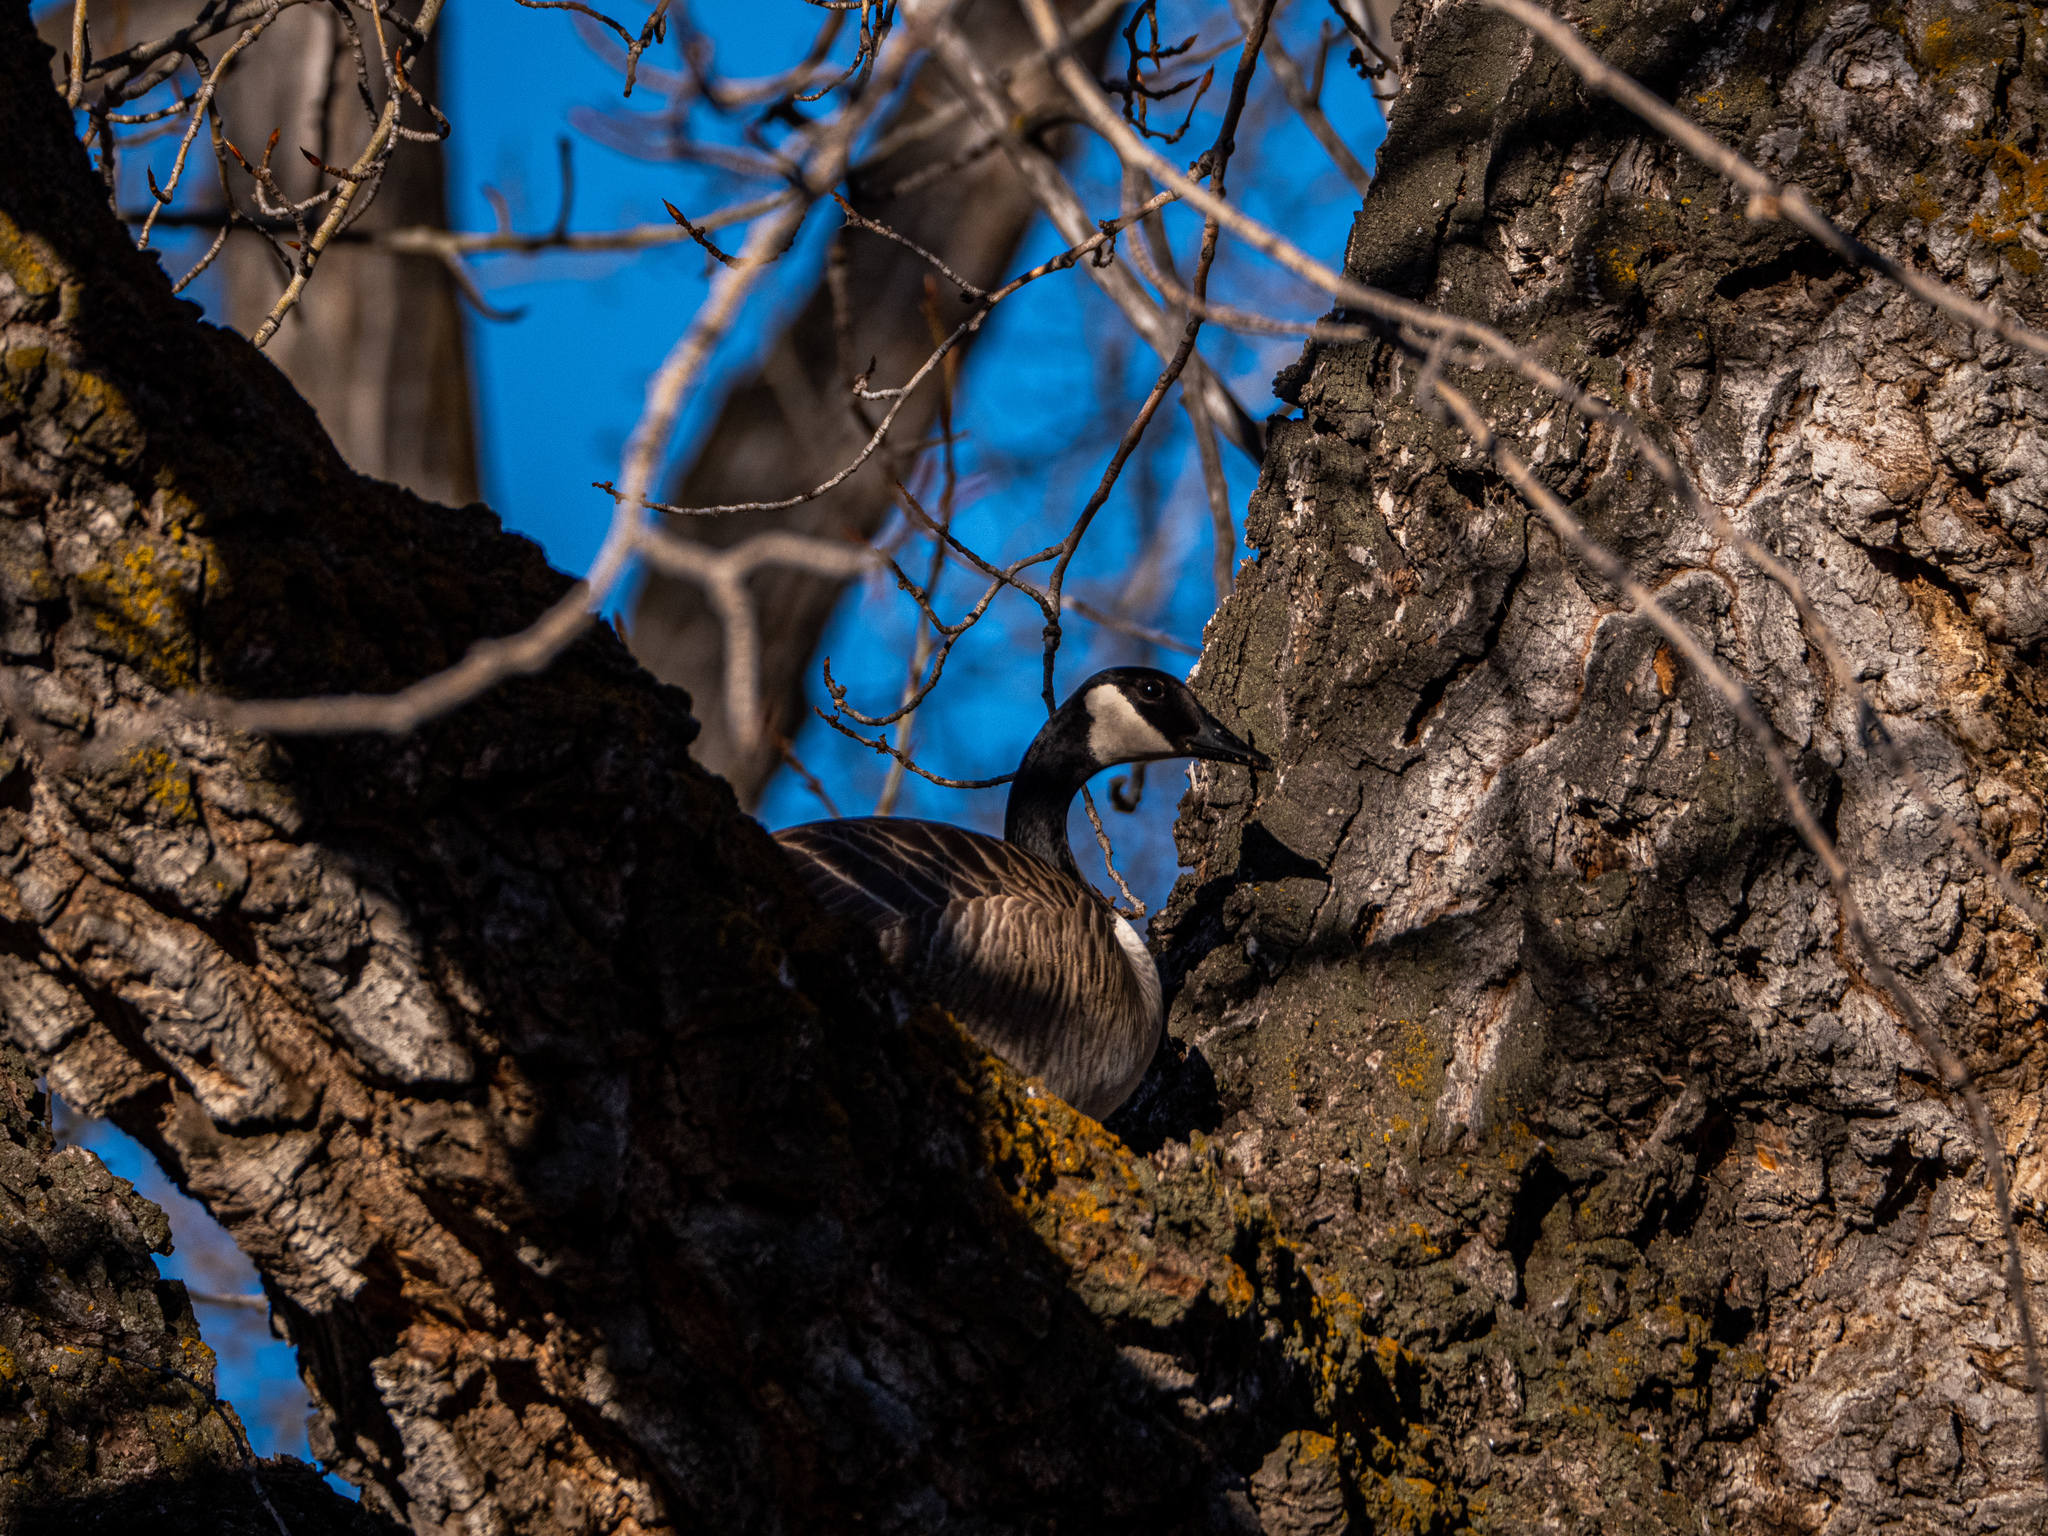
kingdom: Animalia
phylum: Chordata
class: Aves
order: Anseriformes
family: Anatidae
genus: Branta
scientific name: Branta canadensis
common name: Canada goose
